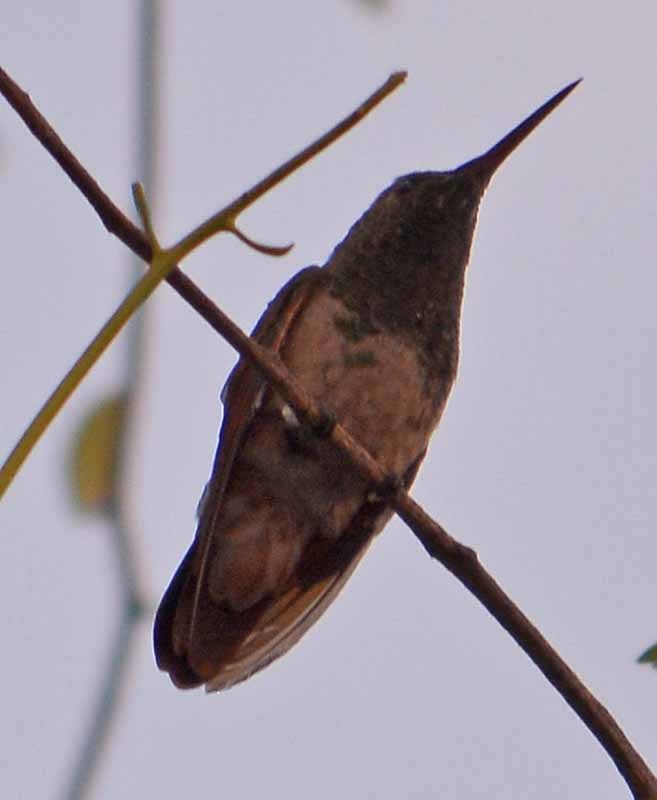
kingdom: Animalia
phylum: Chordata
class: Aves
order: Apodiformes
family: Trochilidae
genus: Saucerottia
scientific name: Saucerottia beryllina
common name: Berylline hummingbird
